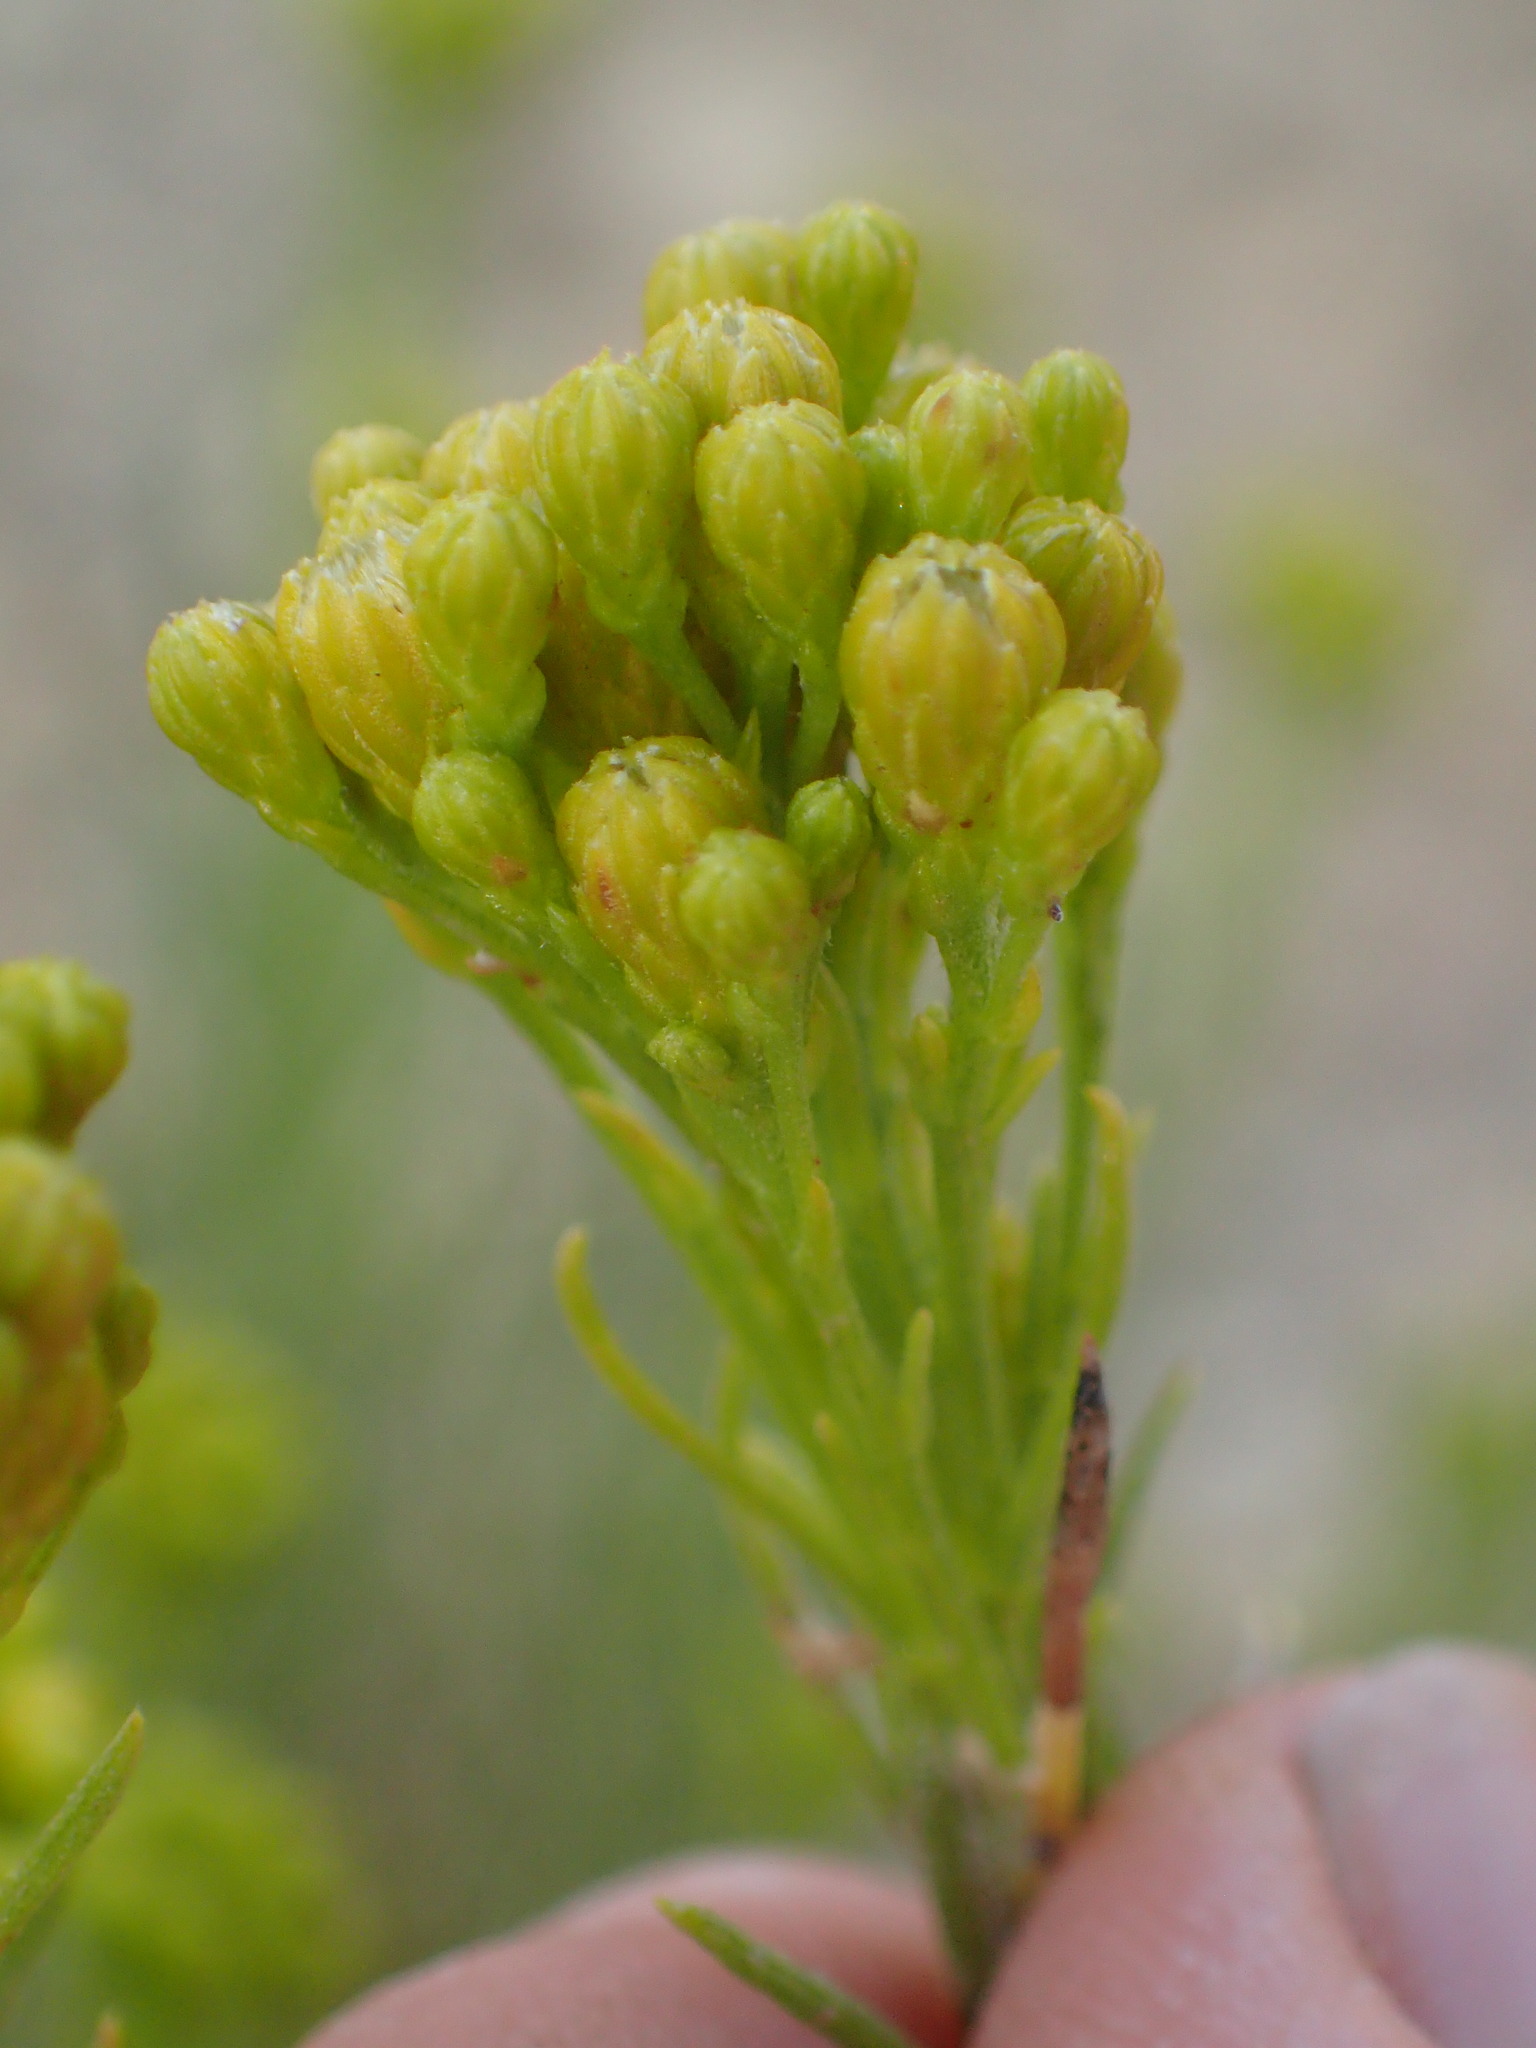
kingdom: Plantae
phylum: Tracheophyta
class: Magnoliopsida
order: Asterales
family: Asteraceae
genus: Ericameria
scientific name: Ericameria arborescens
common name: Goldenfleece
